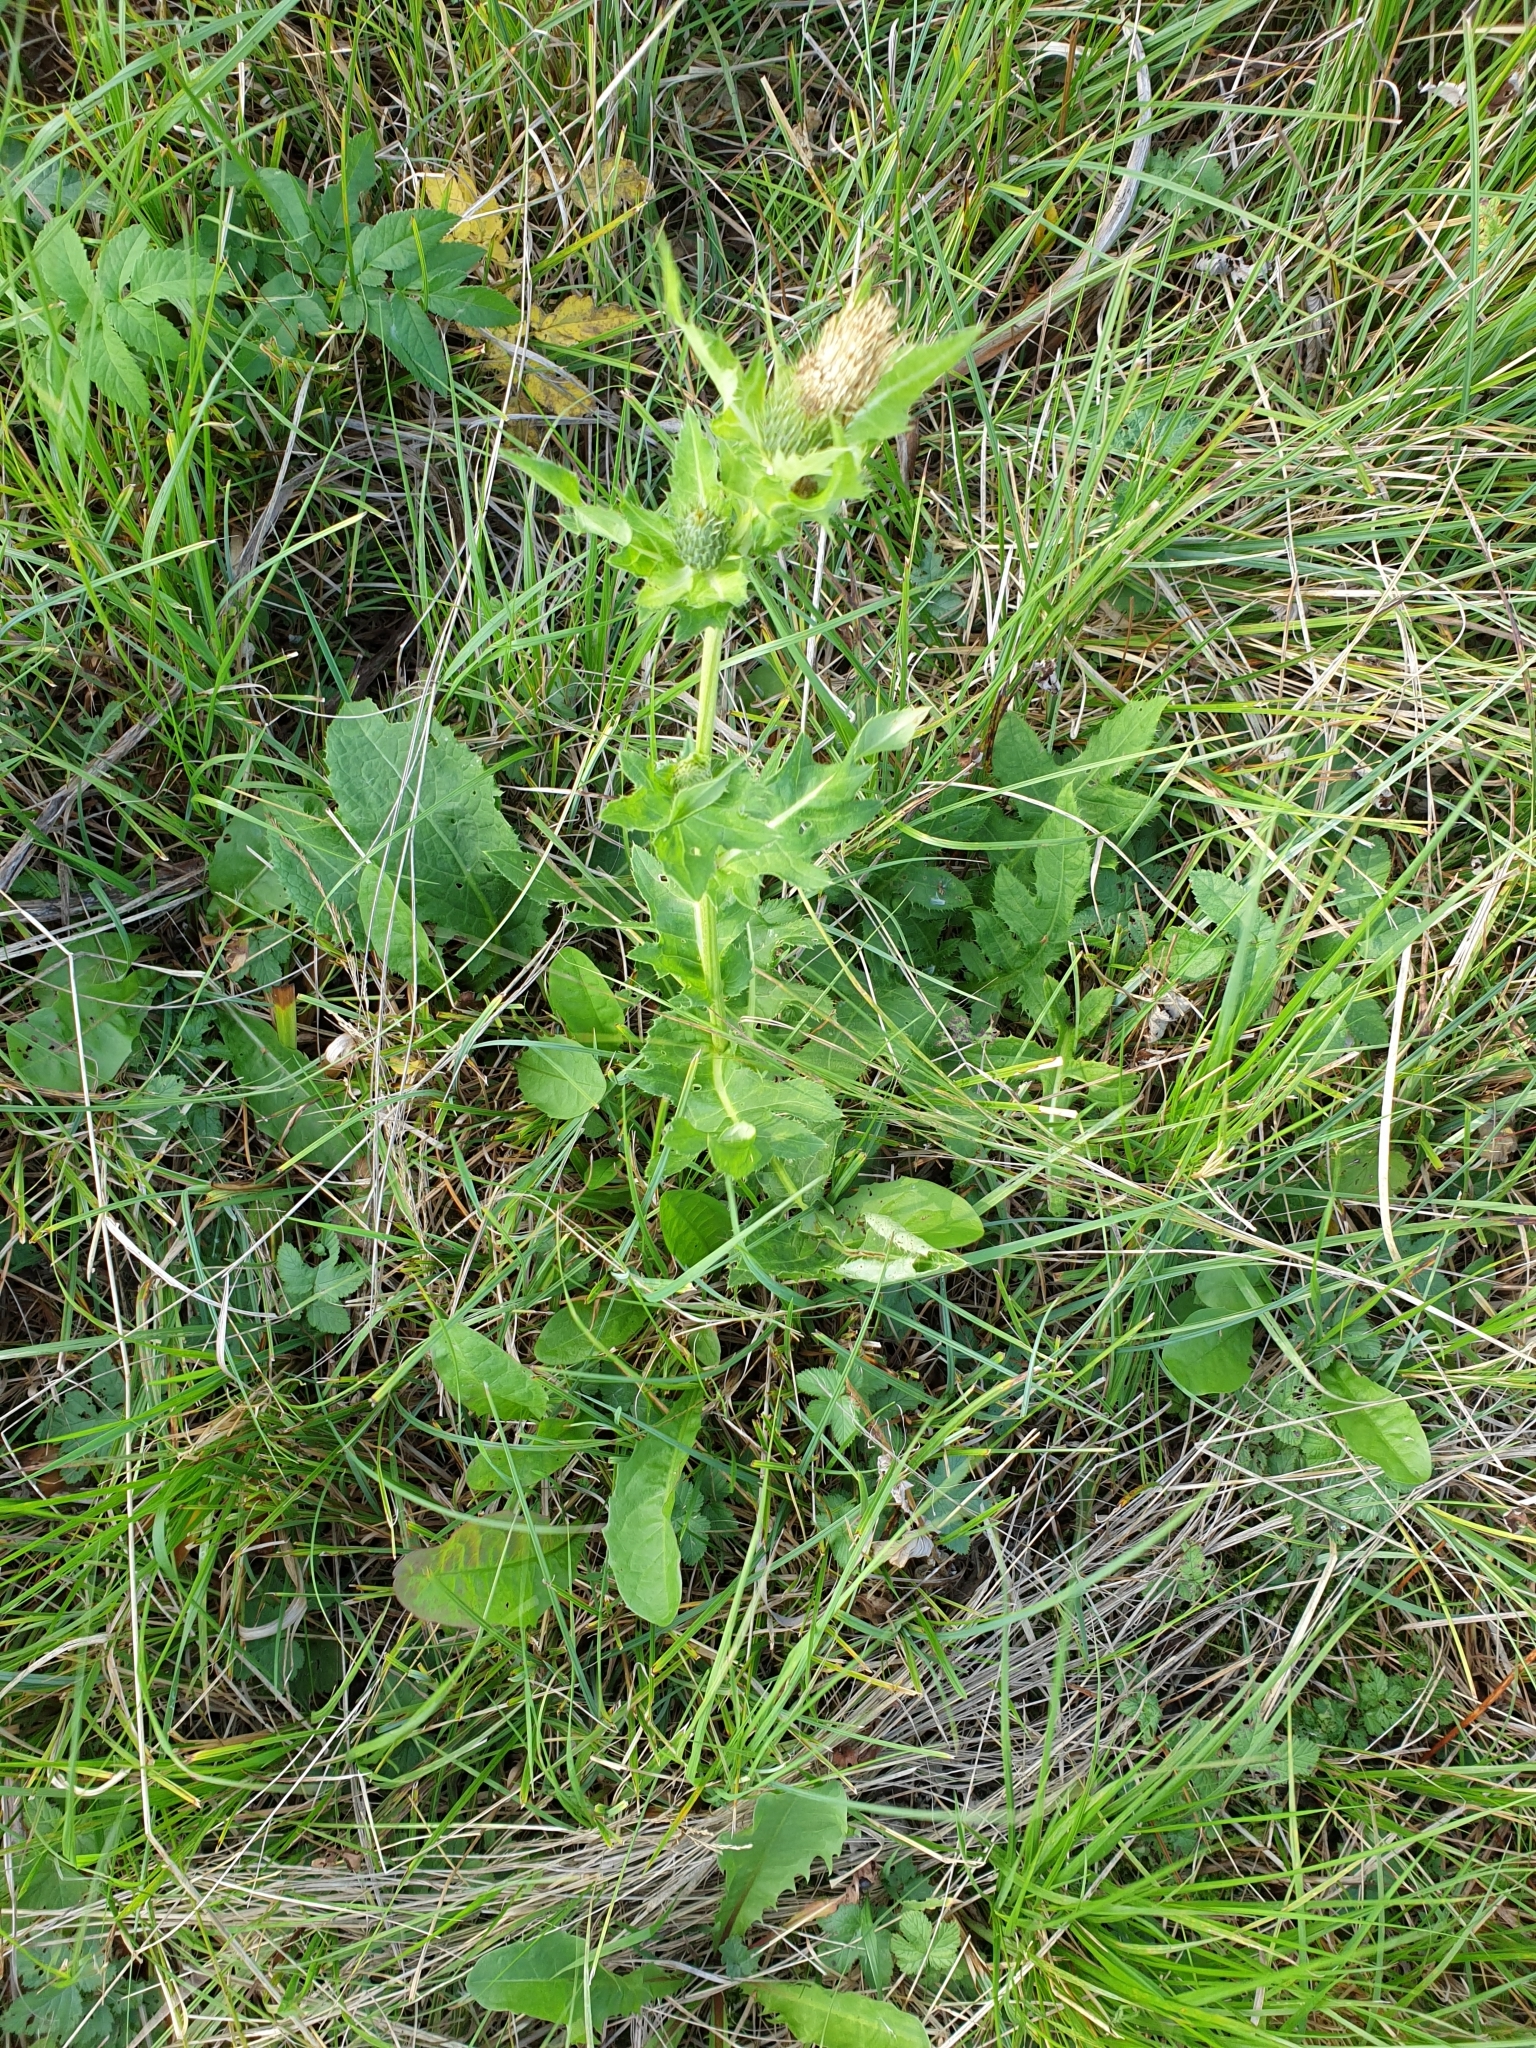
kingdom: Plantae
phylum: Tracheophyta
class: Magnoliopsida
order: Asterales
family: Asteraceae
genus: Cirsium
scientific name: Cirsium oleraceum
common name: Cabbage thistle
